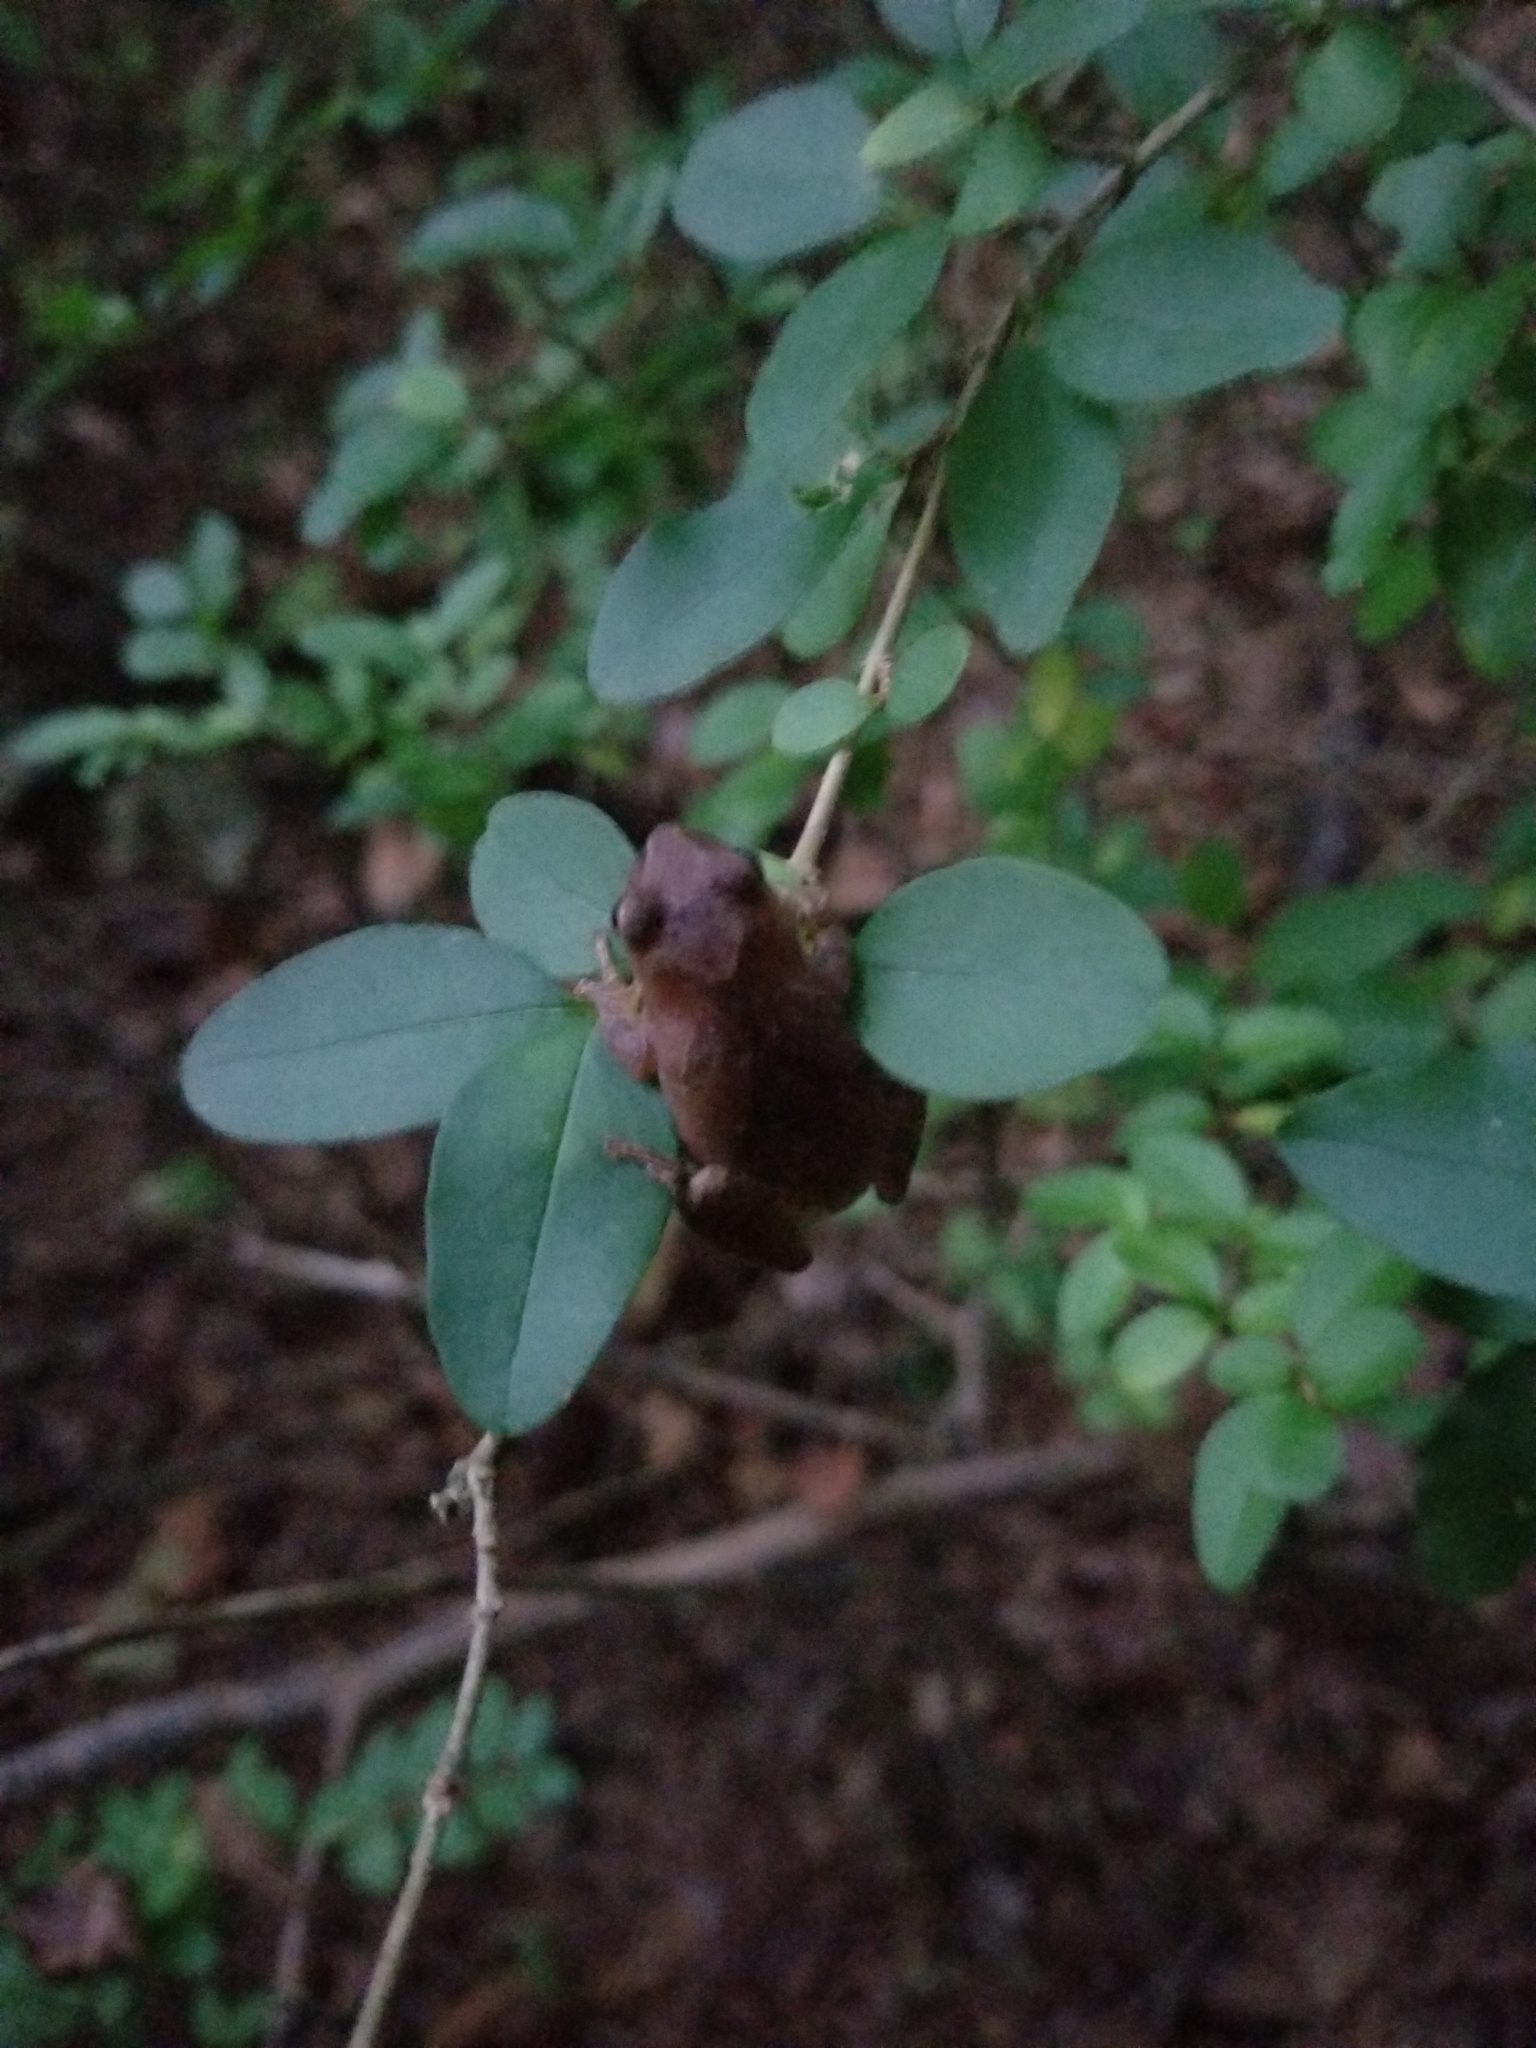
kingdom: Animalia
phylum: Chordata
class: Amphibia
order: Anura
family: Hylidae
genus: Pseudacris
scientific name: Pseudacris crucifer
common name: Spring peeper
